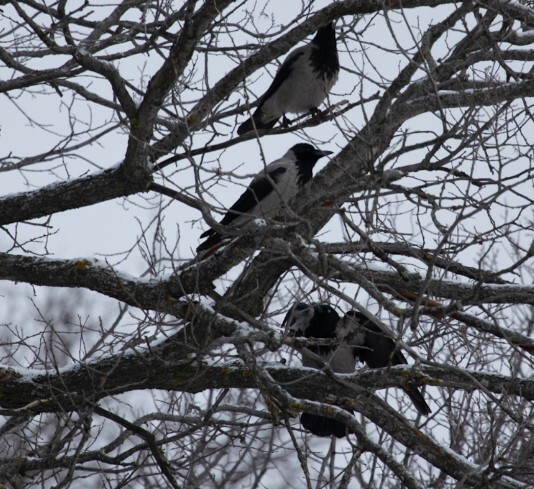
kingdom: Animalia
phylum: Chordata
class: Aves
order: Passeriformes
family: Corvidae
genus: Corvus
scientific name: Corvus cornix
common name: Hooded crow
